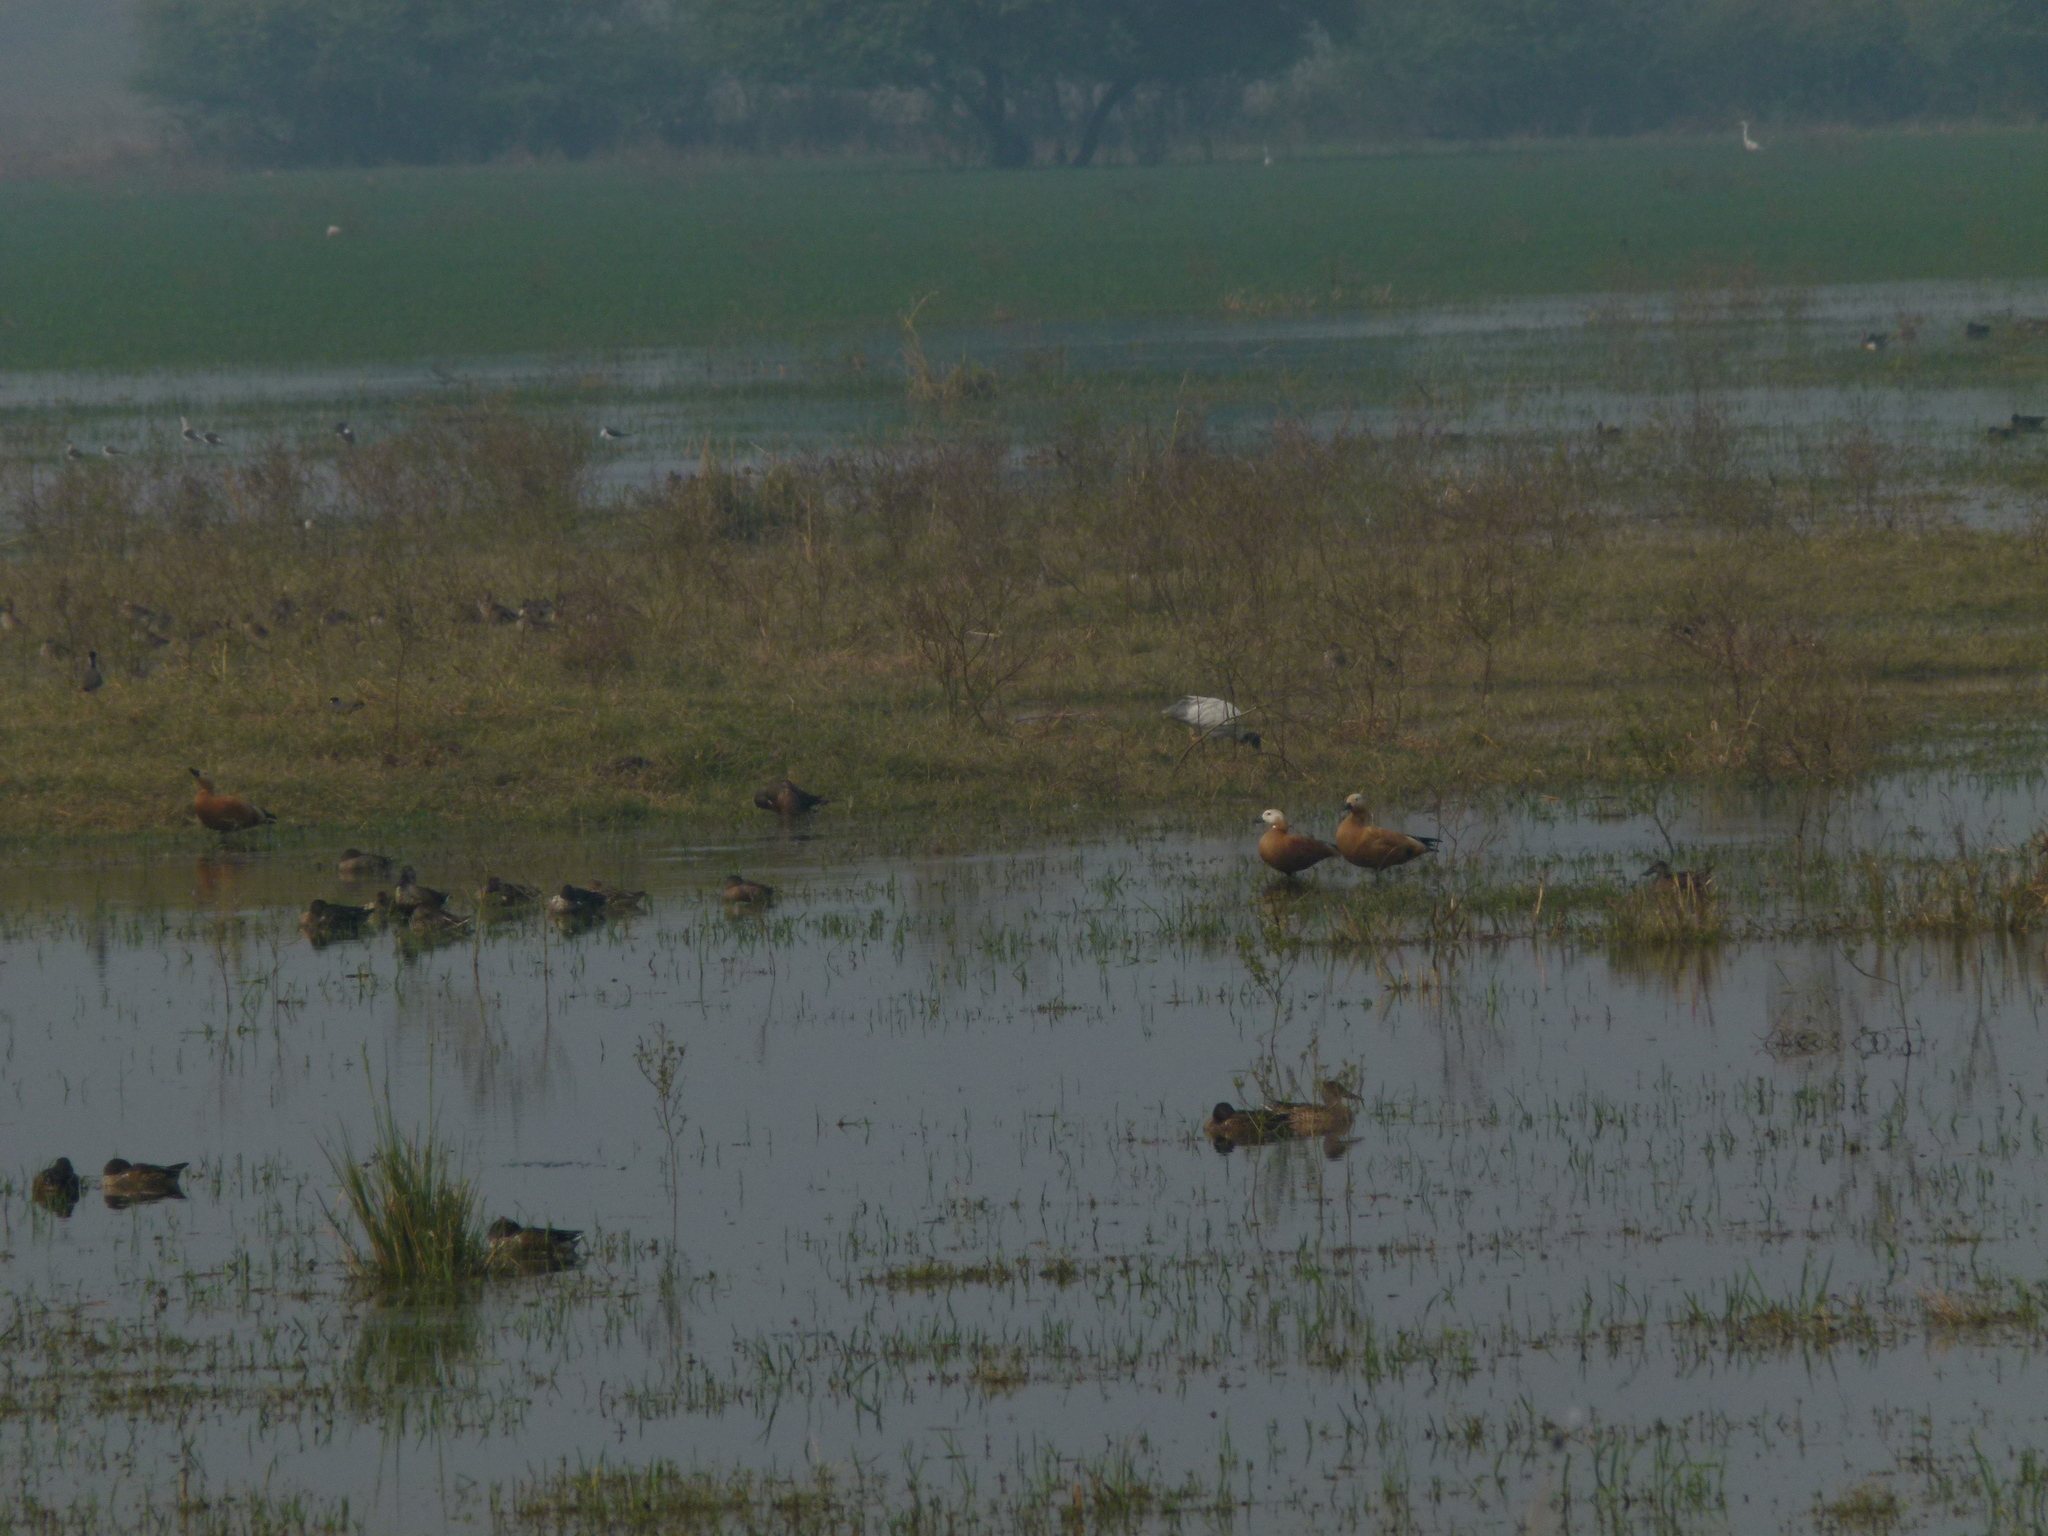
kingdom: Animalia
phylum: Chordata
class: Aves
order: Anseriformes
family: Anatidae
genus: Tadorna
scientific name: Tadorna ferruginea
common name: Ruddy shelduck
